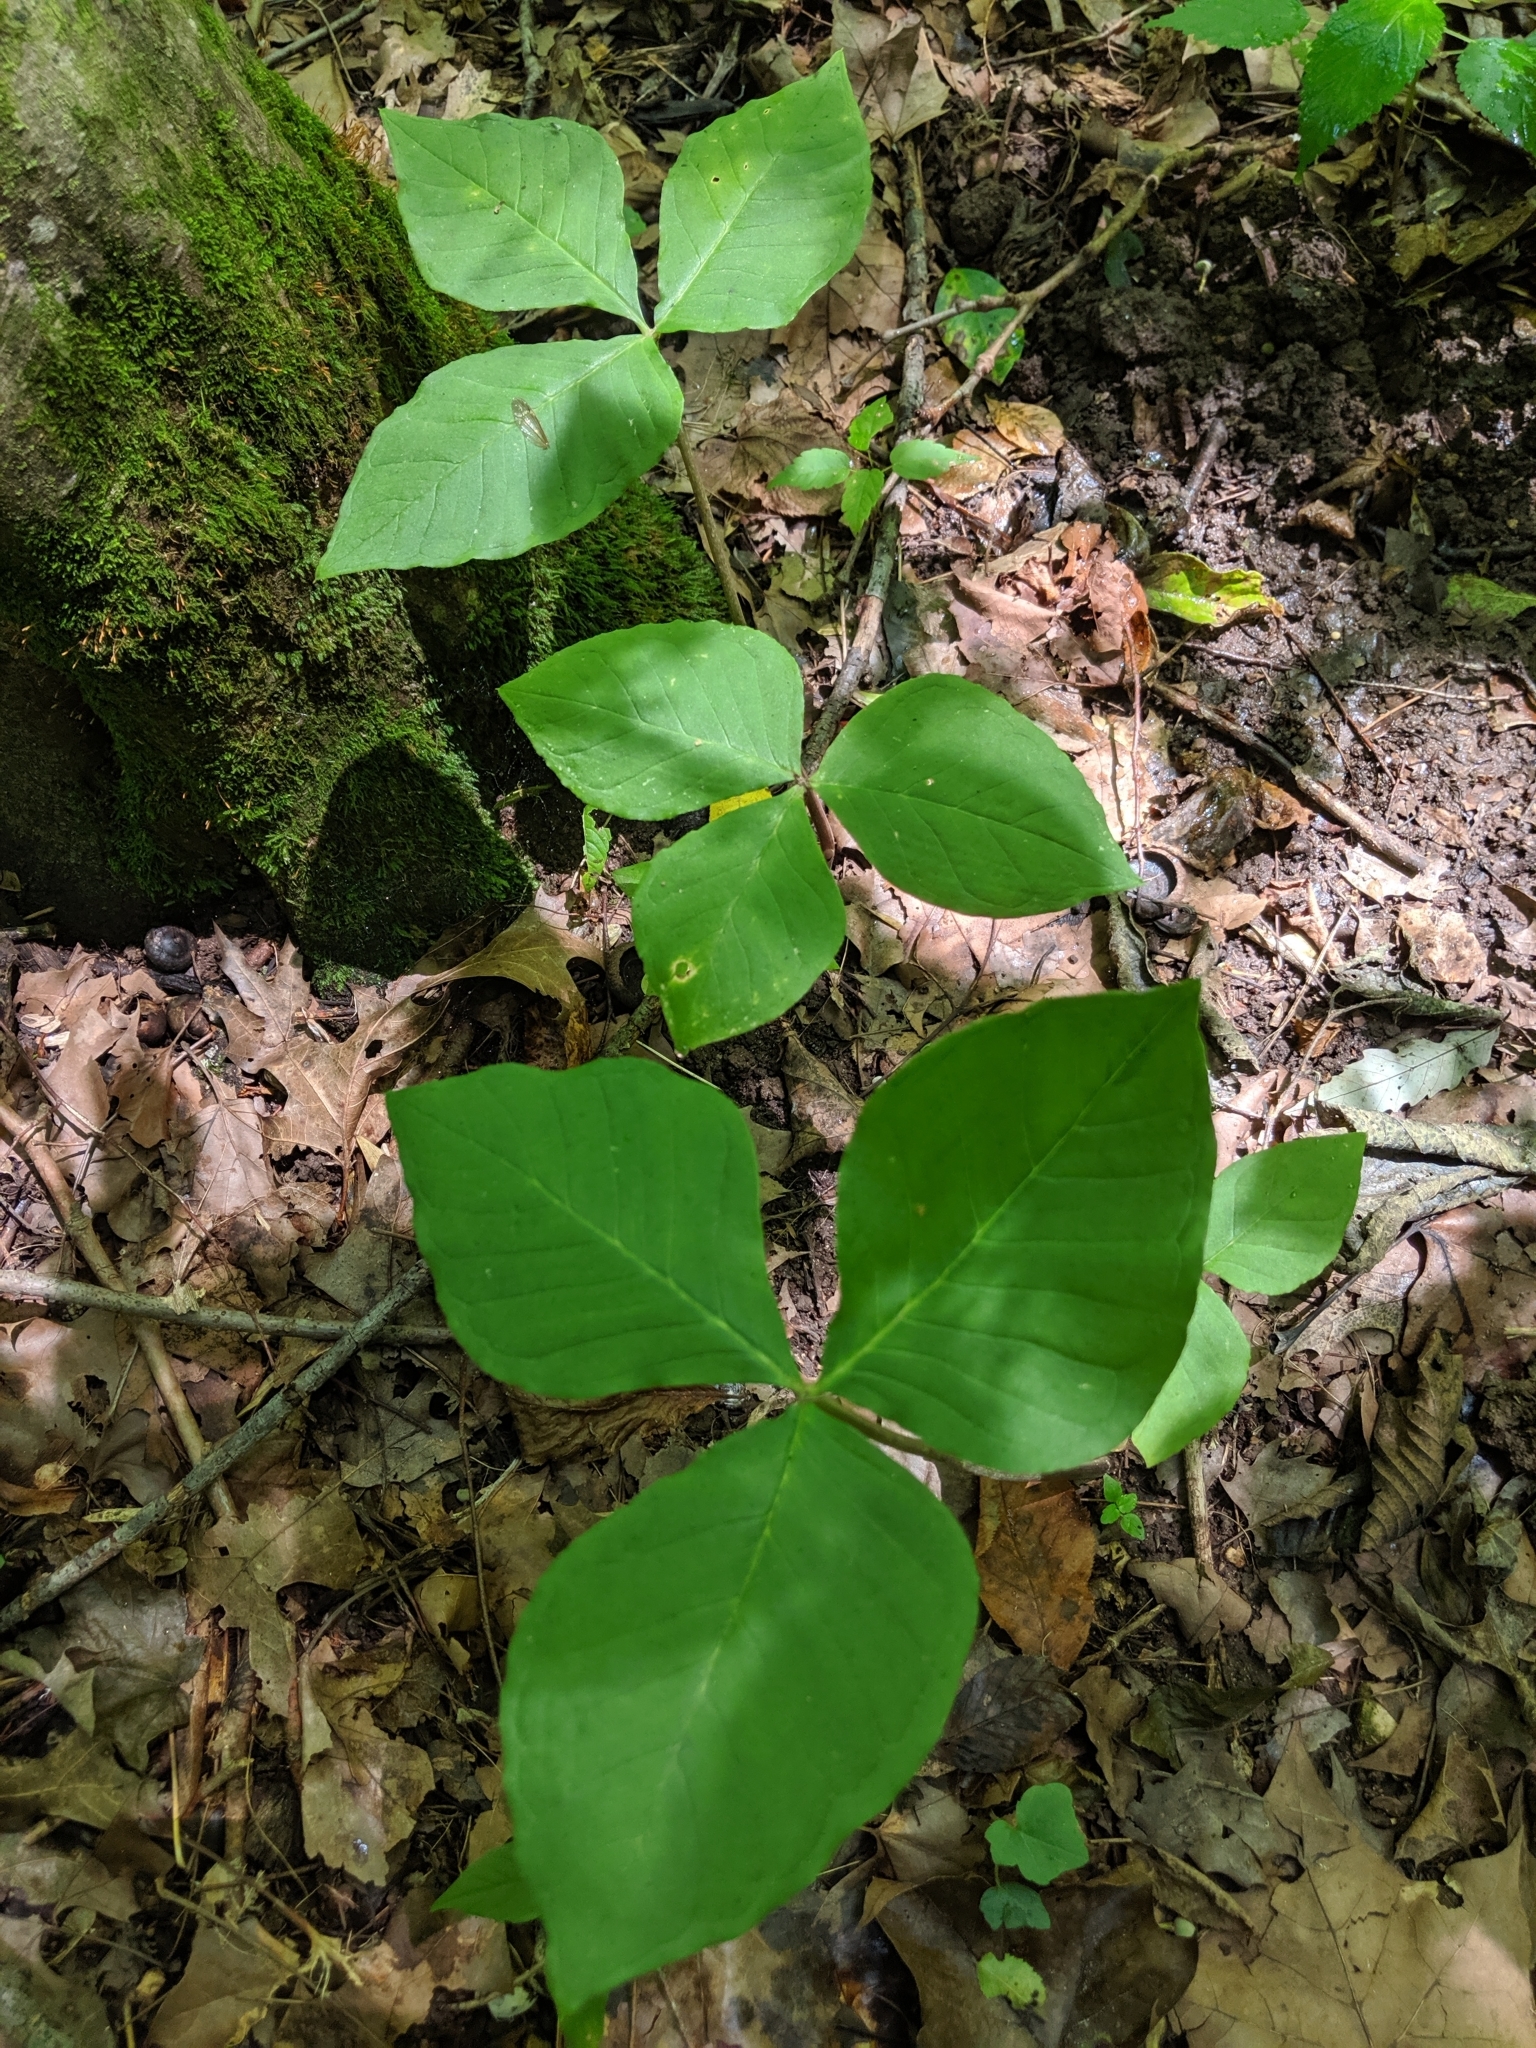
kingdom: Plantae
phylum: Tracheophyta
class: Liliopsida
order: Alismatales
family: Araceae
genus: Arisaema
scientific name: Arisaema triphyllum
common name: Jack-in-the-pulpit
